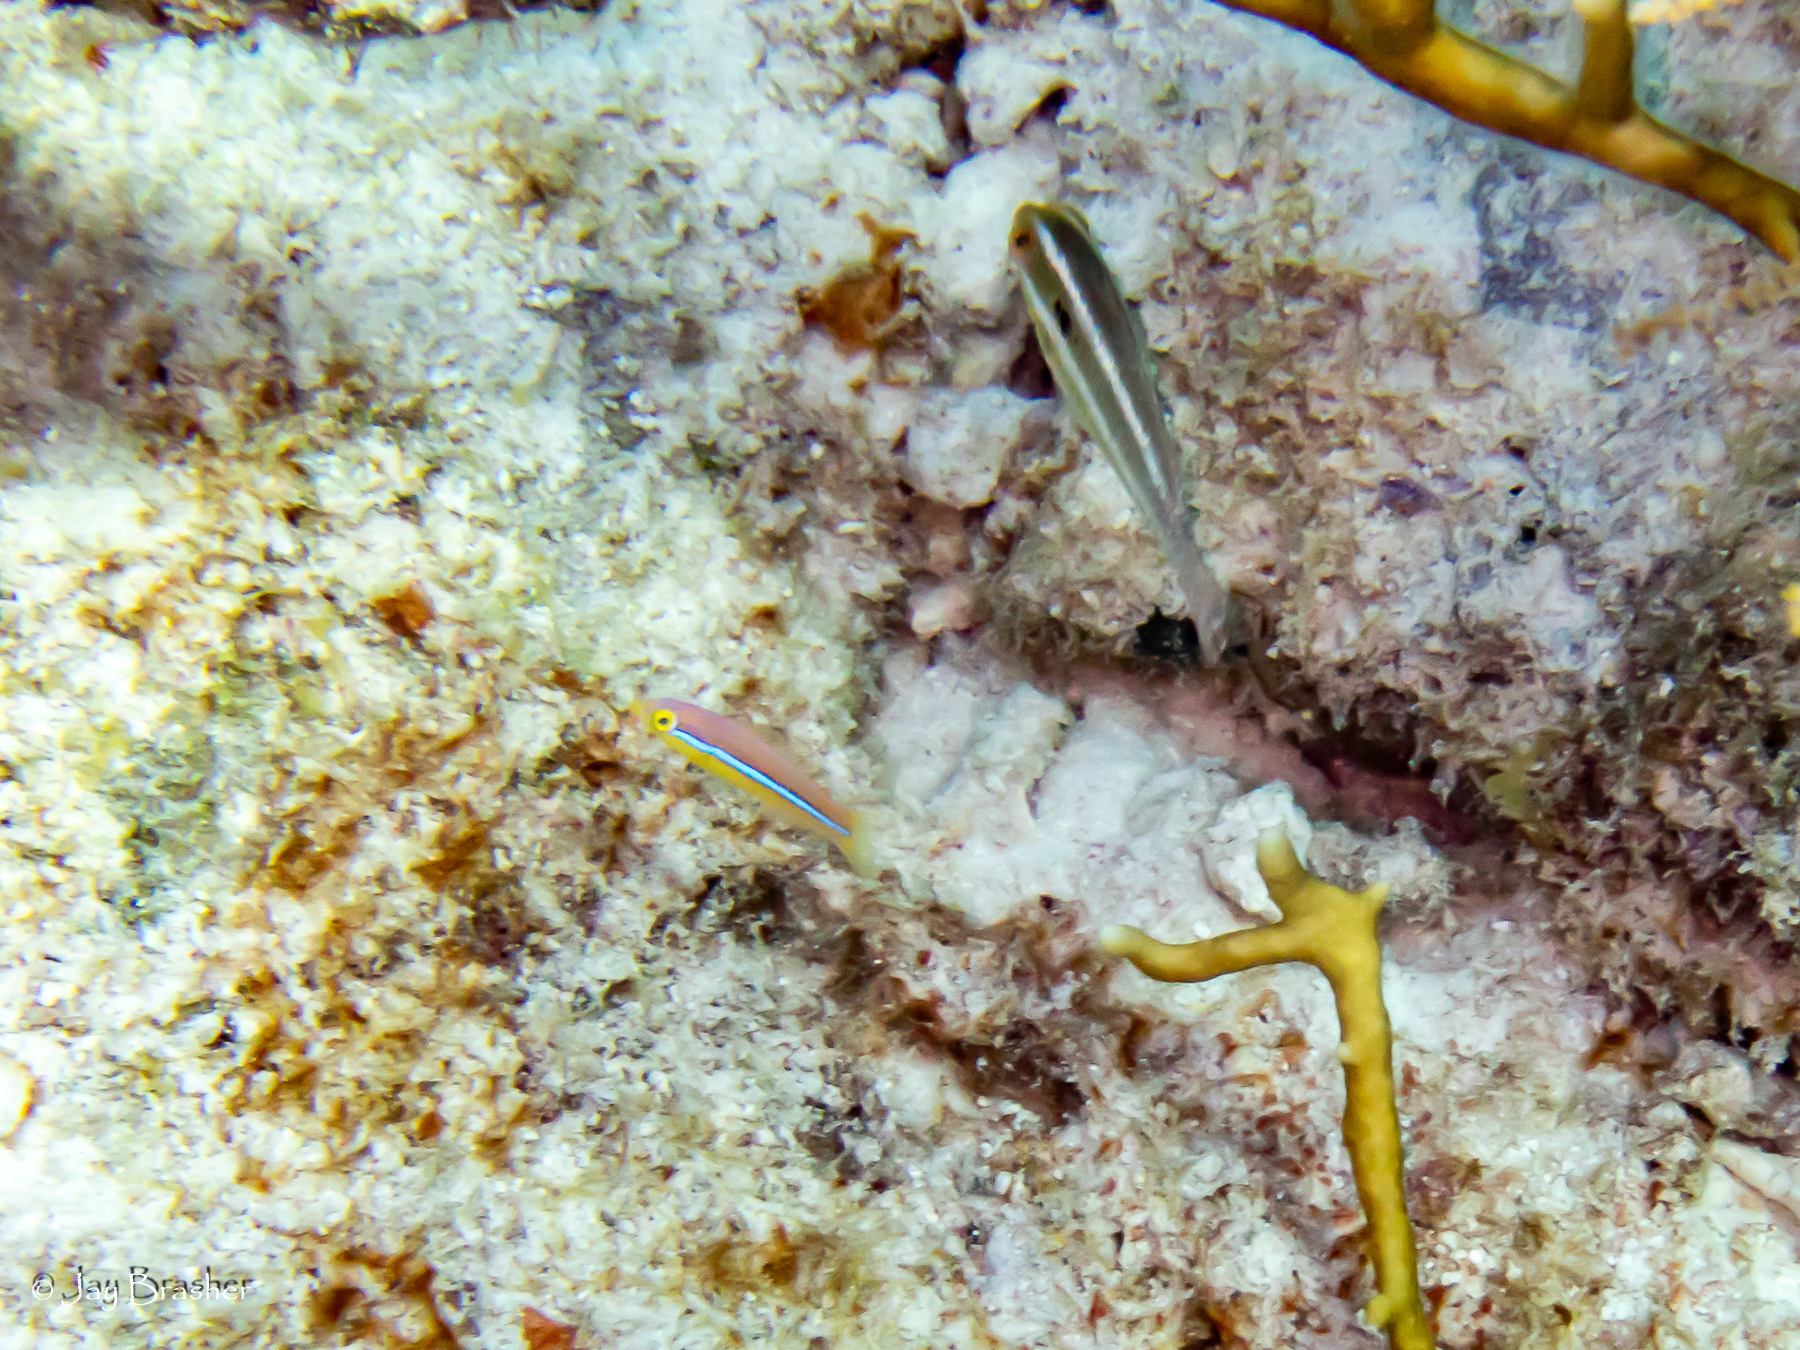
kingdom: Animalia
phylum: Chordata
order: Perciformes
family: Labridae
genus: Halichoeres
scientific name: Halichoeres garnoti
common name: Yellowhead wrasse
